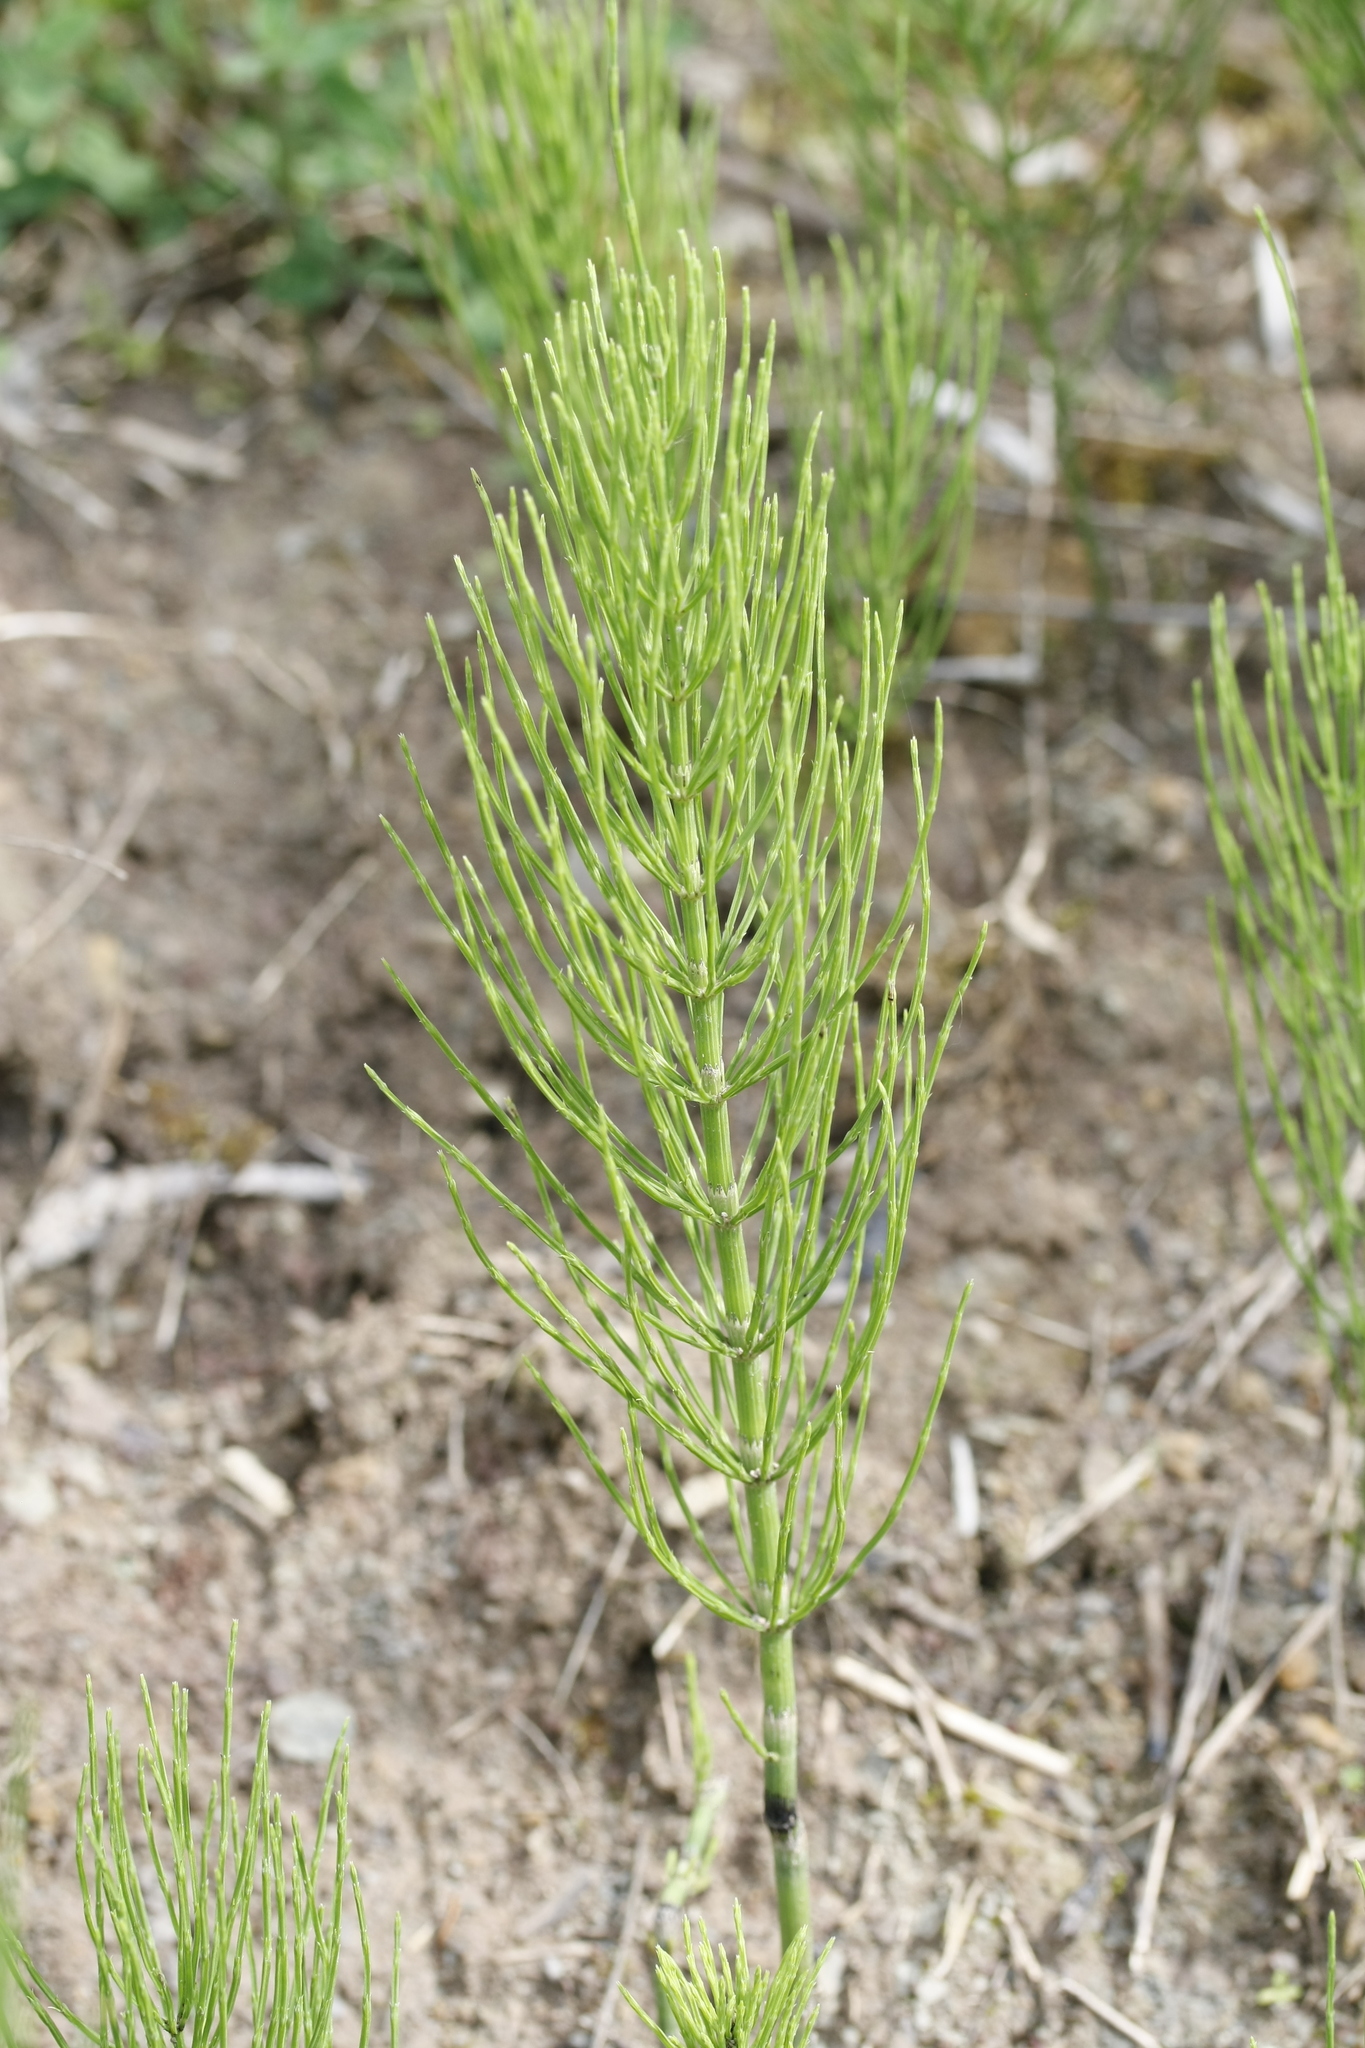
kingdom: Plantae
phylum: Tracheophyta
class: Polypodiopsida
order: Equisetales
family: Equisetaceae
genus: Equisetum
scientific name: Equisetum arvense
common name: Field horsetail
